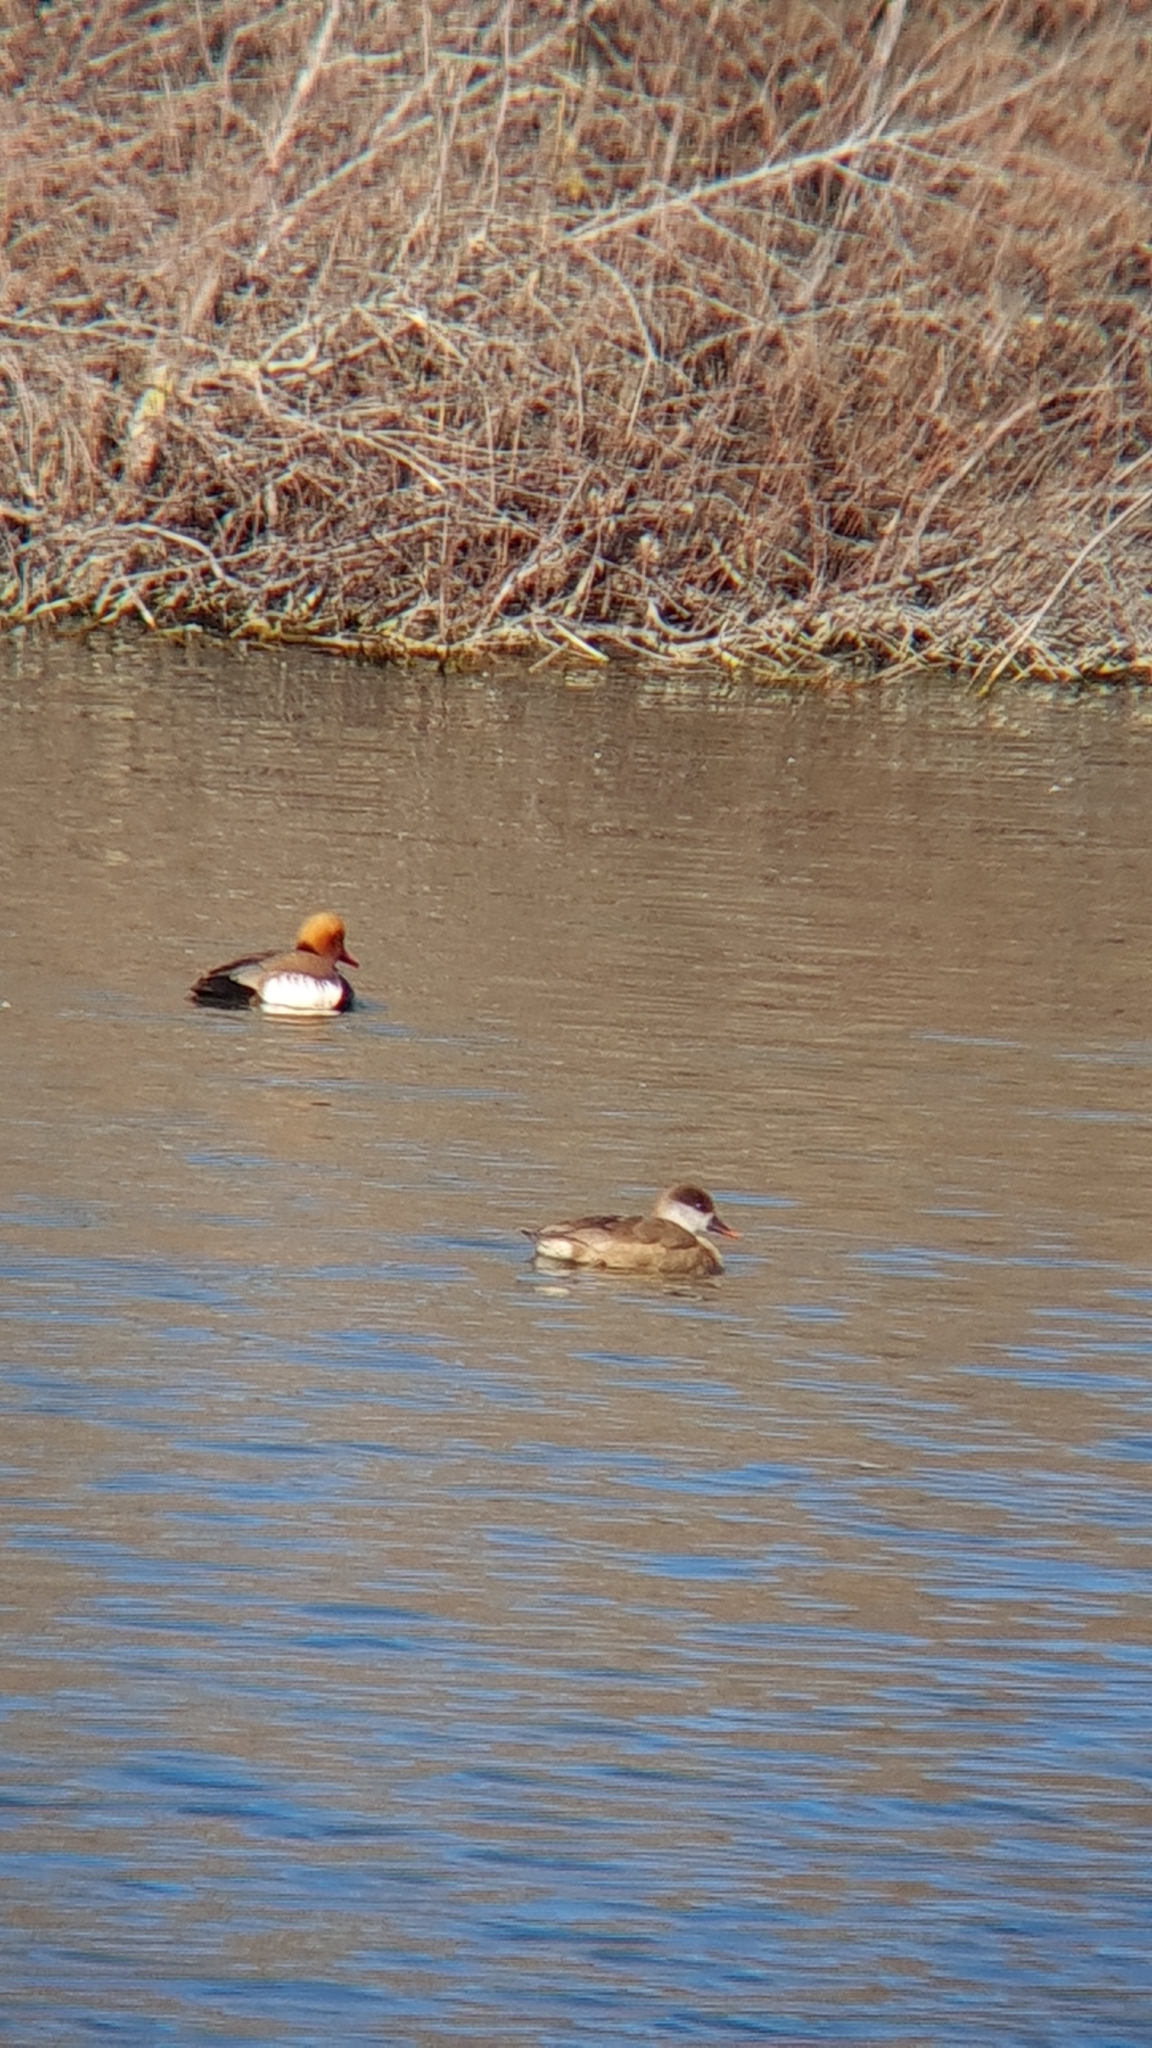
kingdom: Animalia
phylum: Chordata
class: Aves
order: Anseriformes
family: Anatidae
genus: Netta
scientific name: Netta rufina
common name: Red-crested pochard
